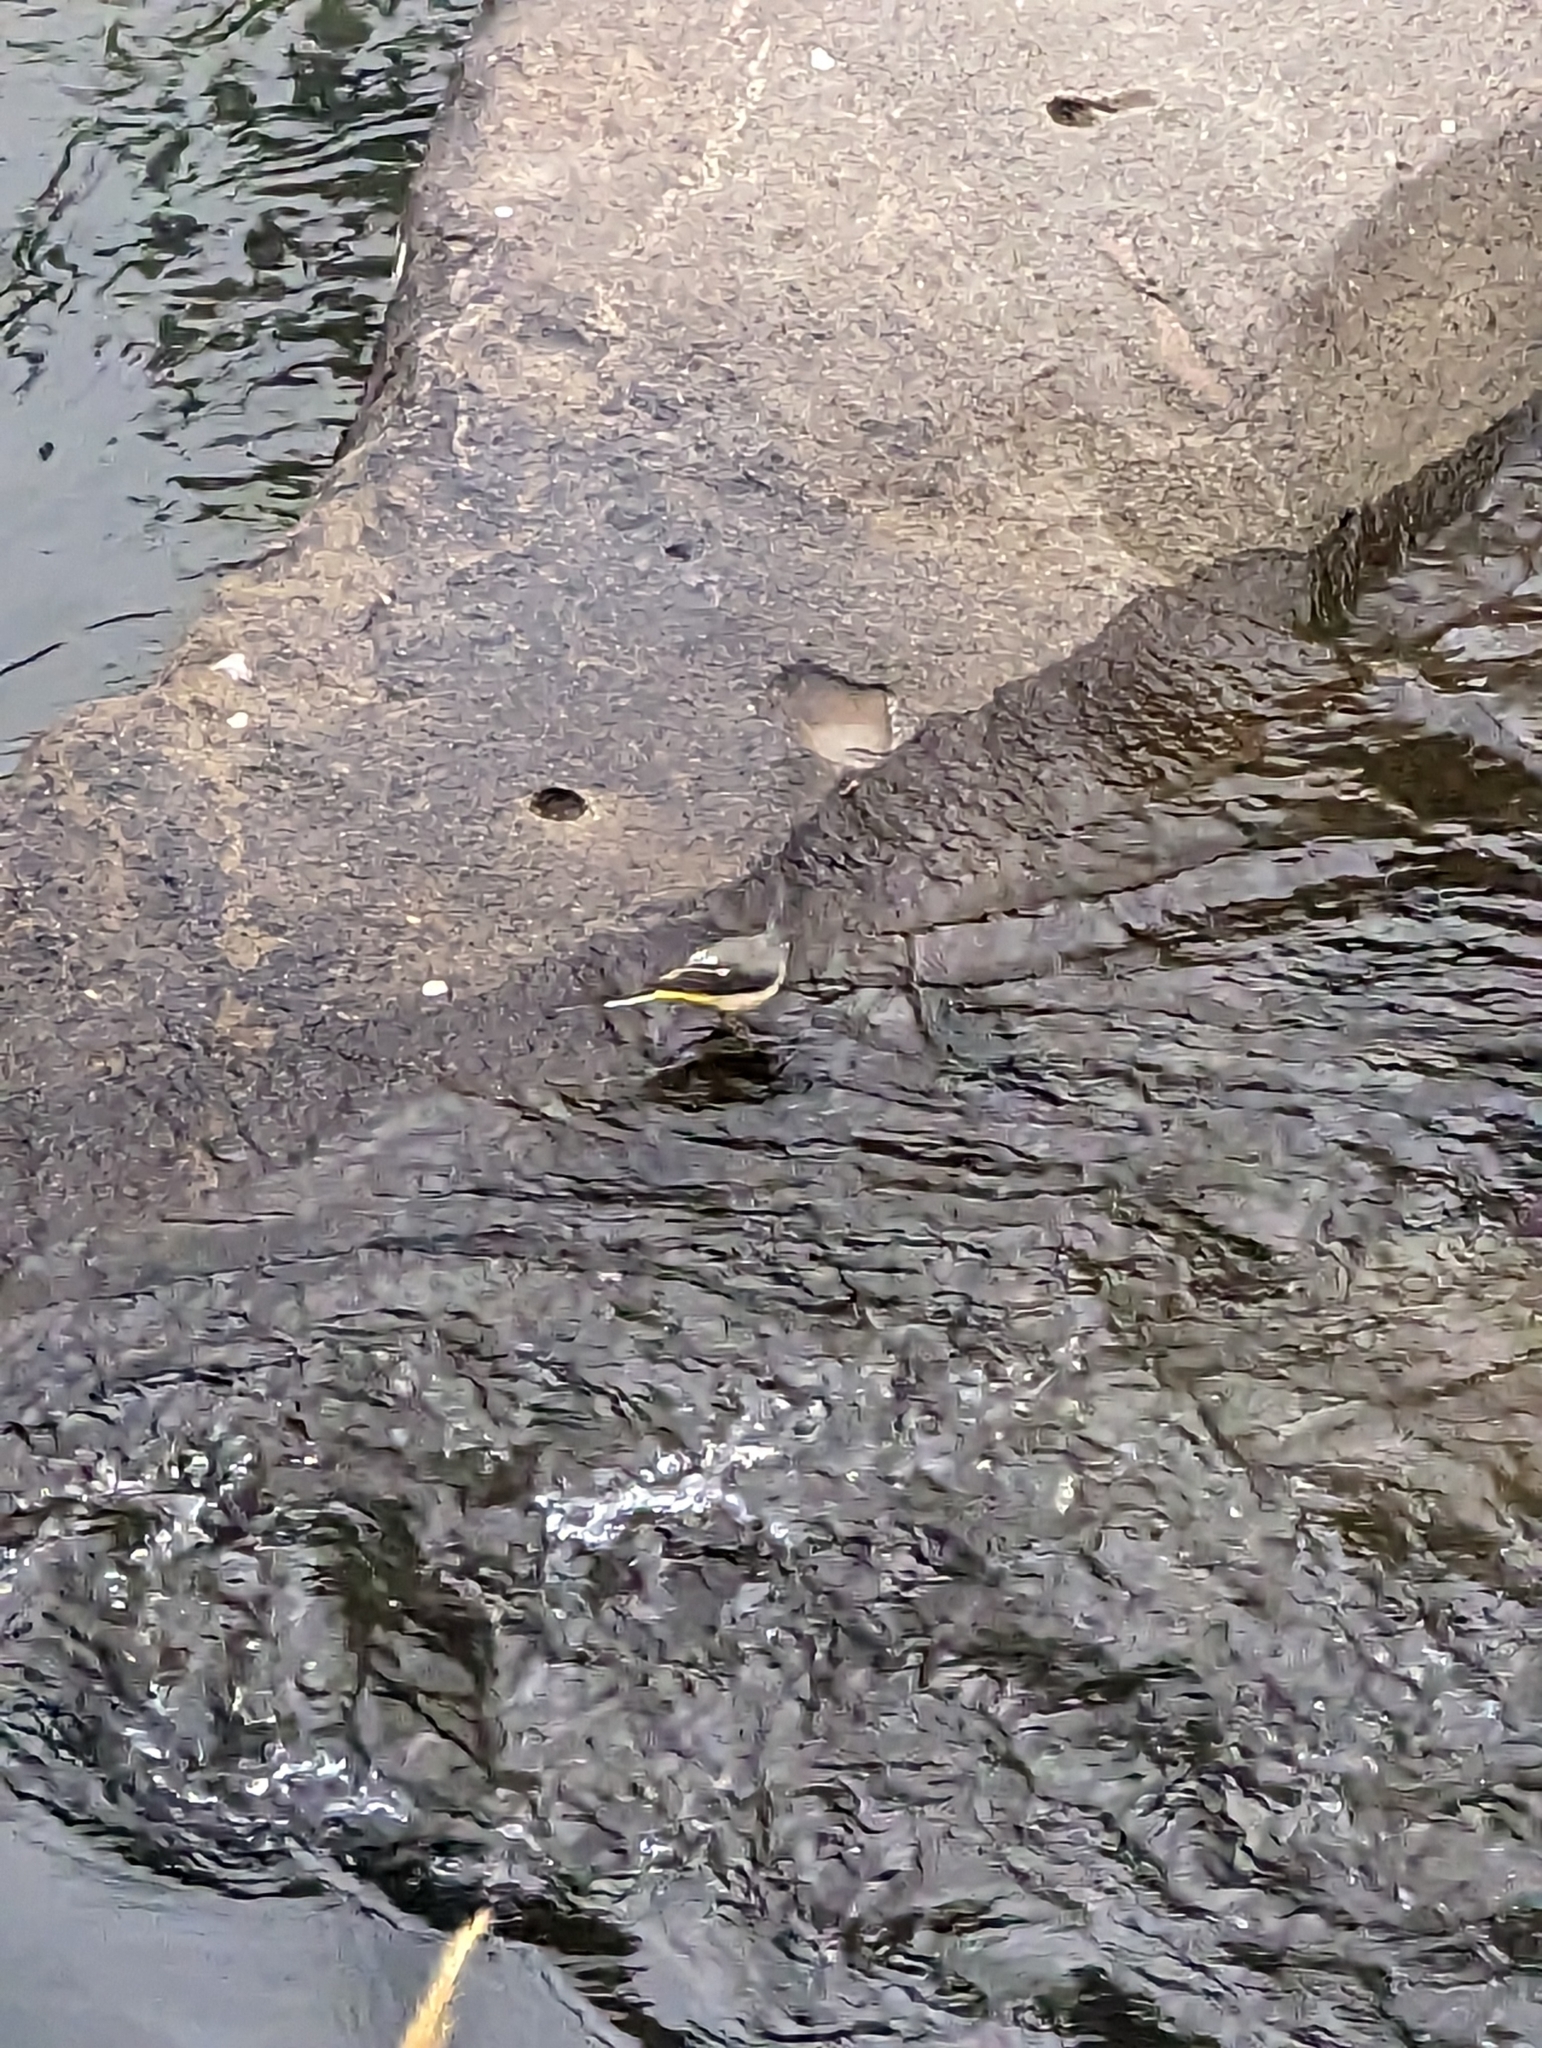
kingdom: Animalia
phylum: Chordata
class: Aves
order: Passeriformes
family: Motacillidae
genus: Motacilla
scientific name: Motacilla cinerea
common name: Grey wagtail
